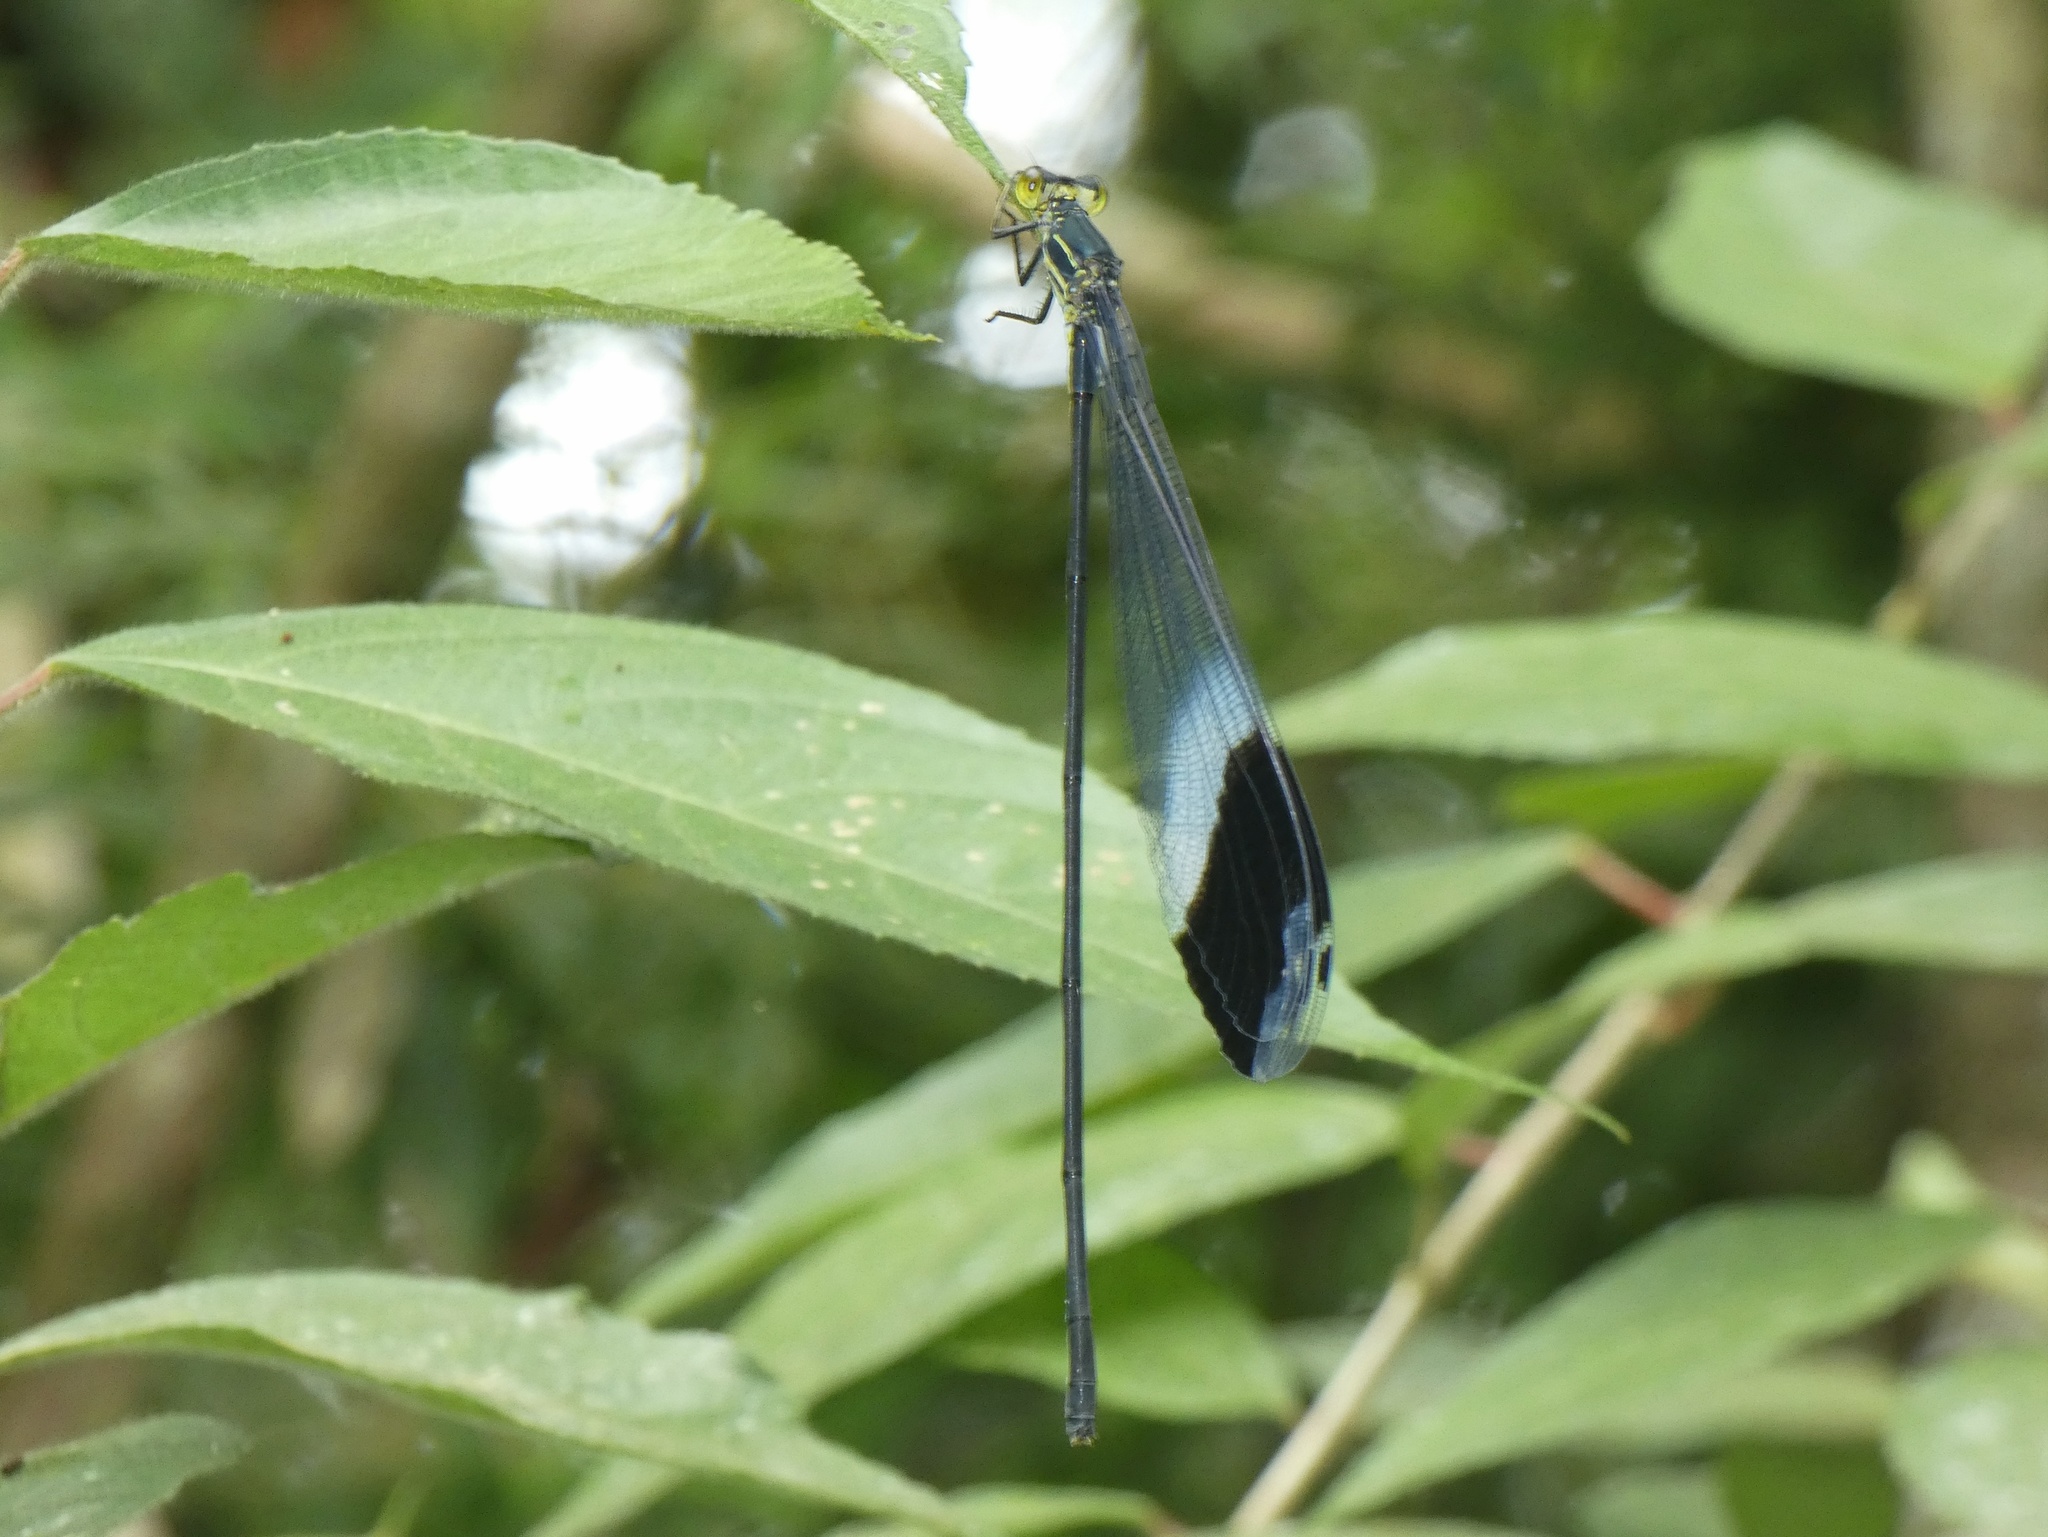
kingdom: Animalia
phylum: Arthropoda
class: Insecta
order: Odonata
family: Coenagrionidae
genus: Megaloprepus
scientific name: Megaloprepus caerulatus
